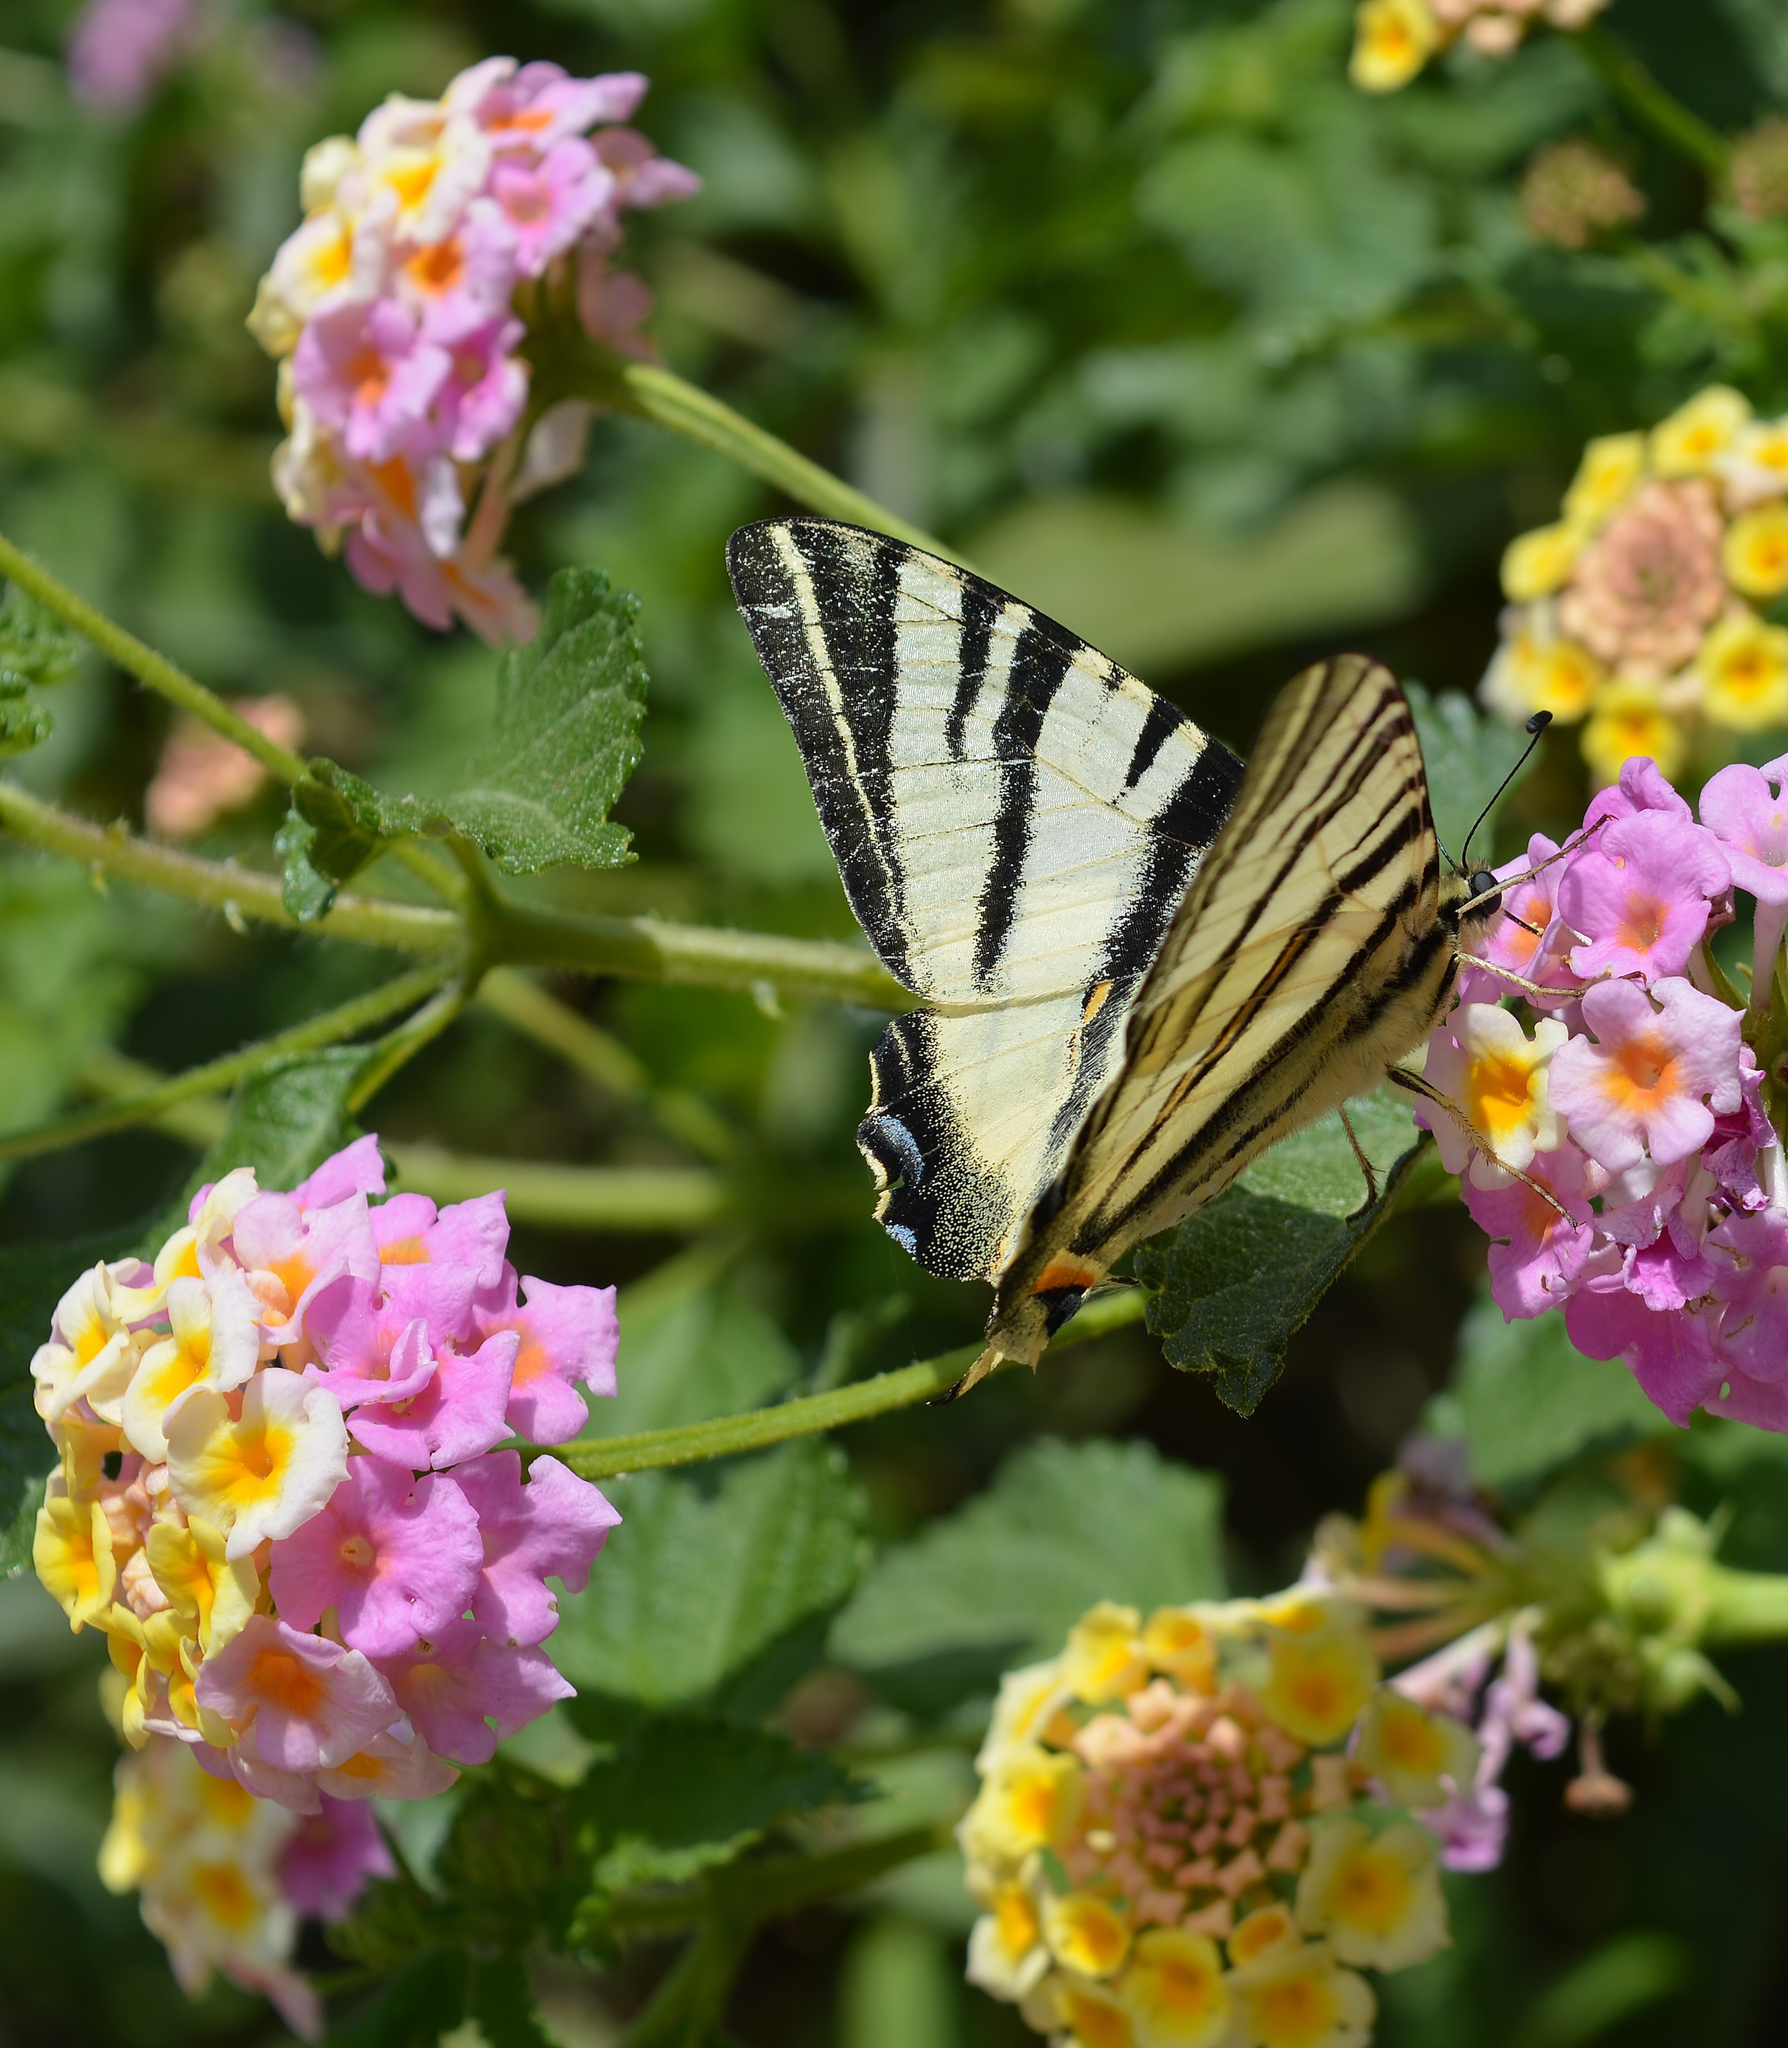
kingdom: Animalia
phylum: Arthropoda
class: Insecta
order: Lepidoptera
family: Papilionidae
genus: Iphiclides
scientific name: Iphiclides podalirius
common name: Scarce swallowtail
